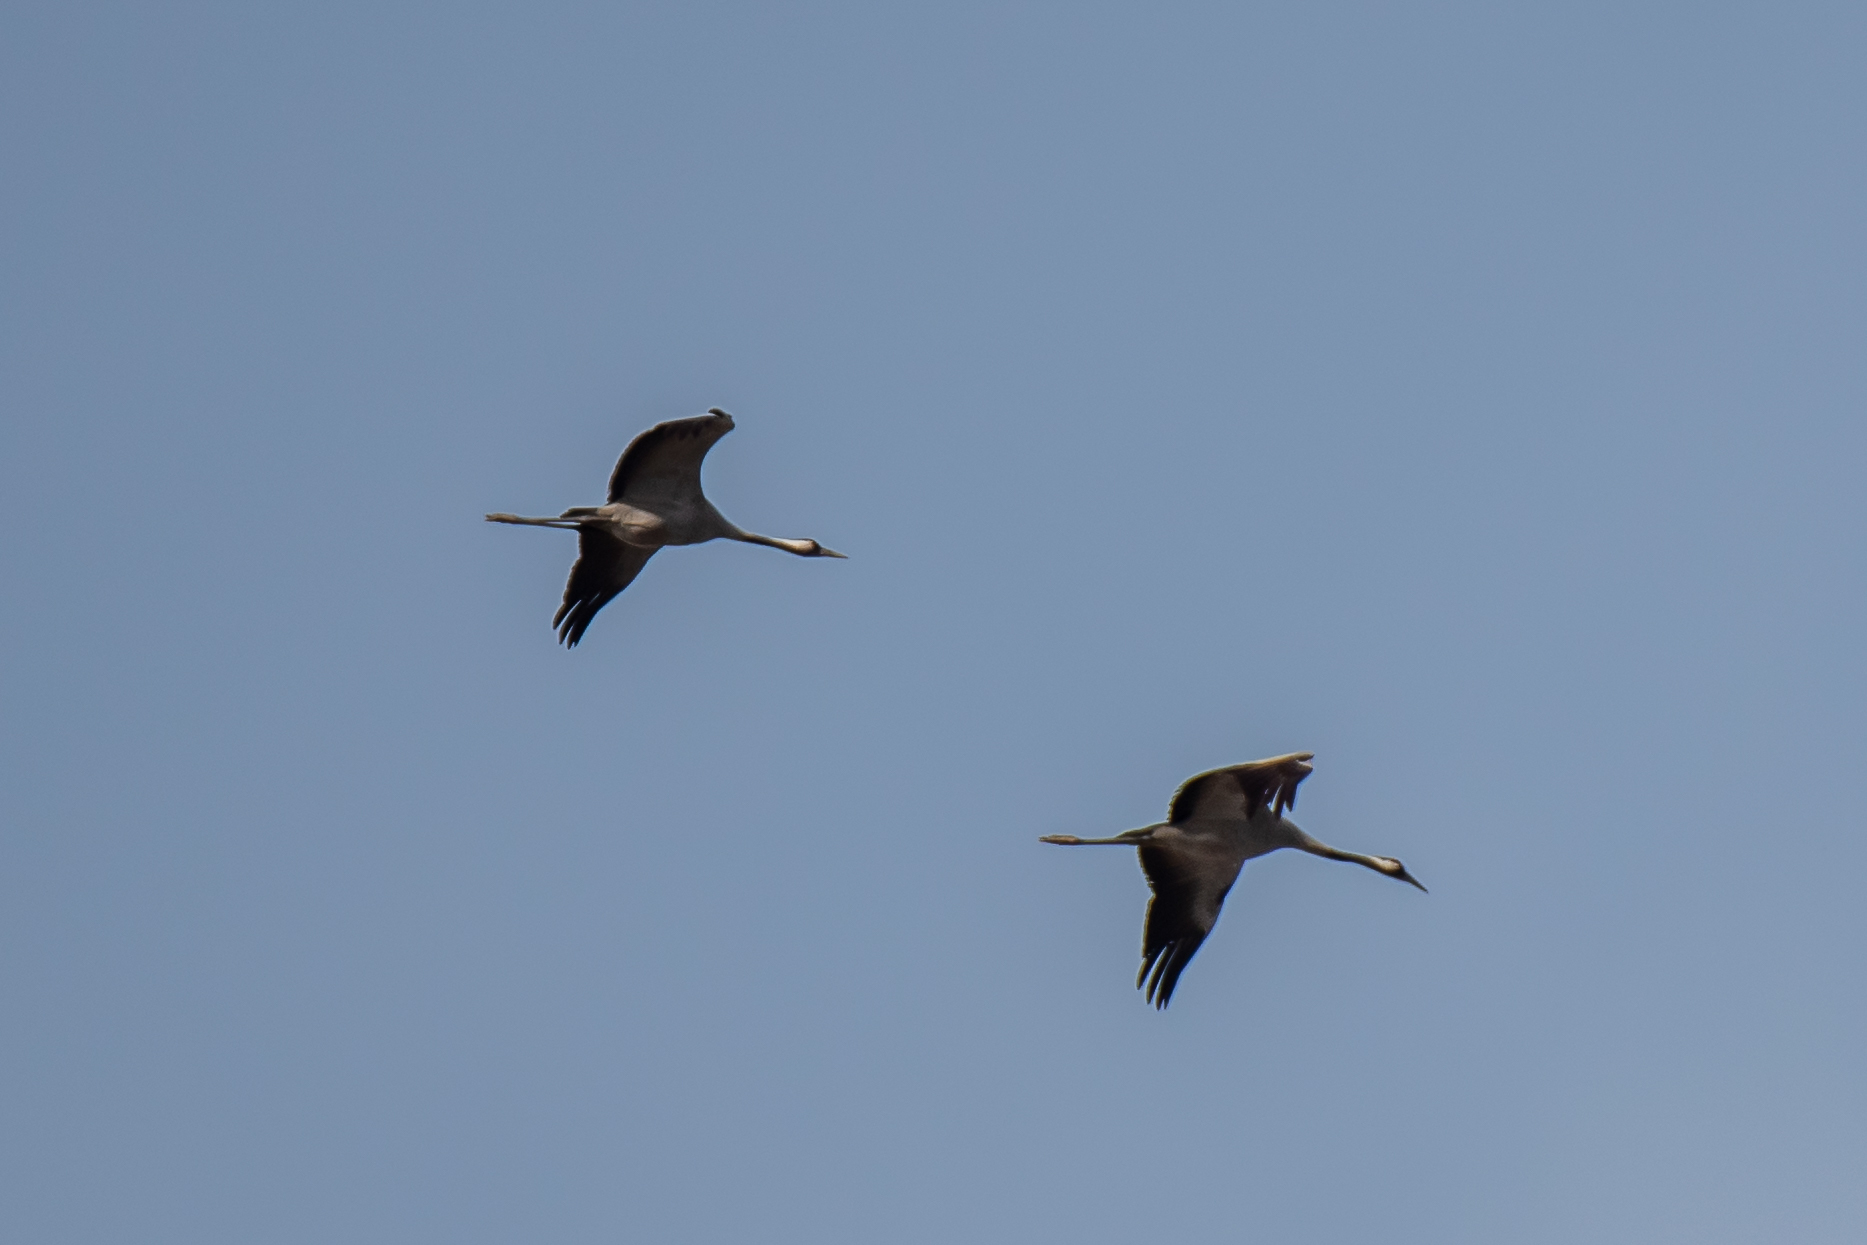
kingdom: Animalia
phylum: Chordata
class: Aves
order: Gruiformes
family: Gruidae
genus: Grus
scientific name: Grus grus
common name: Common crane
